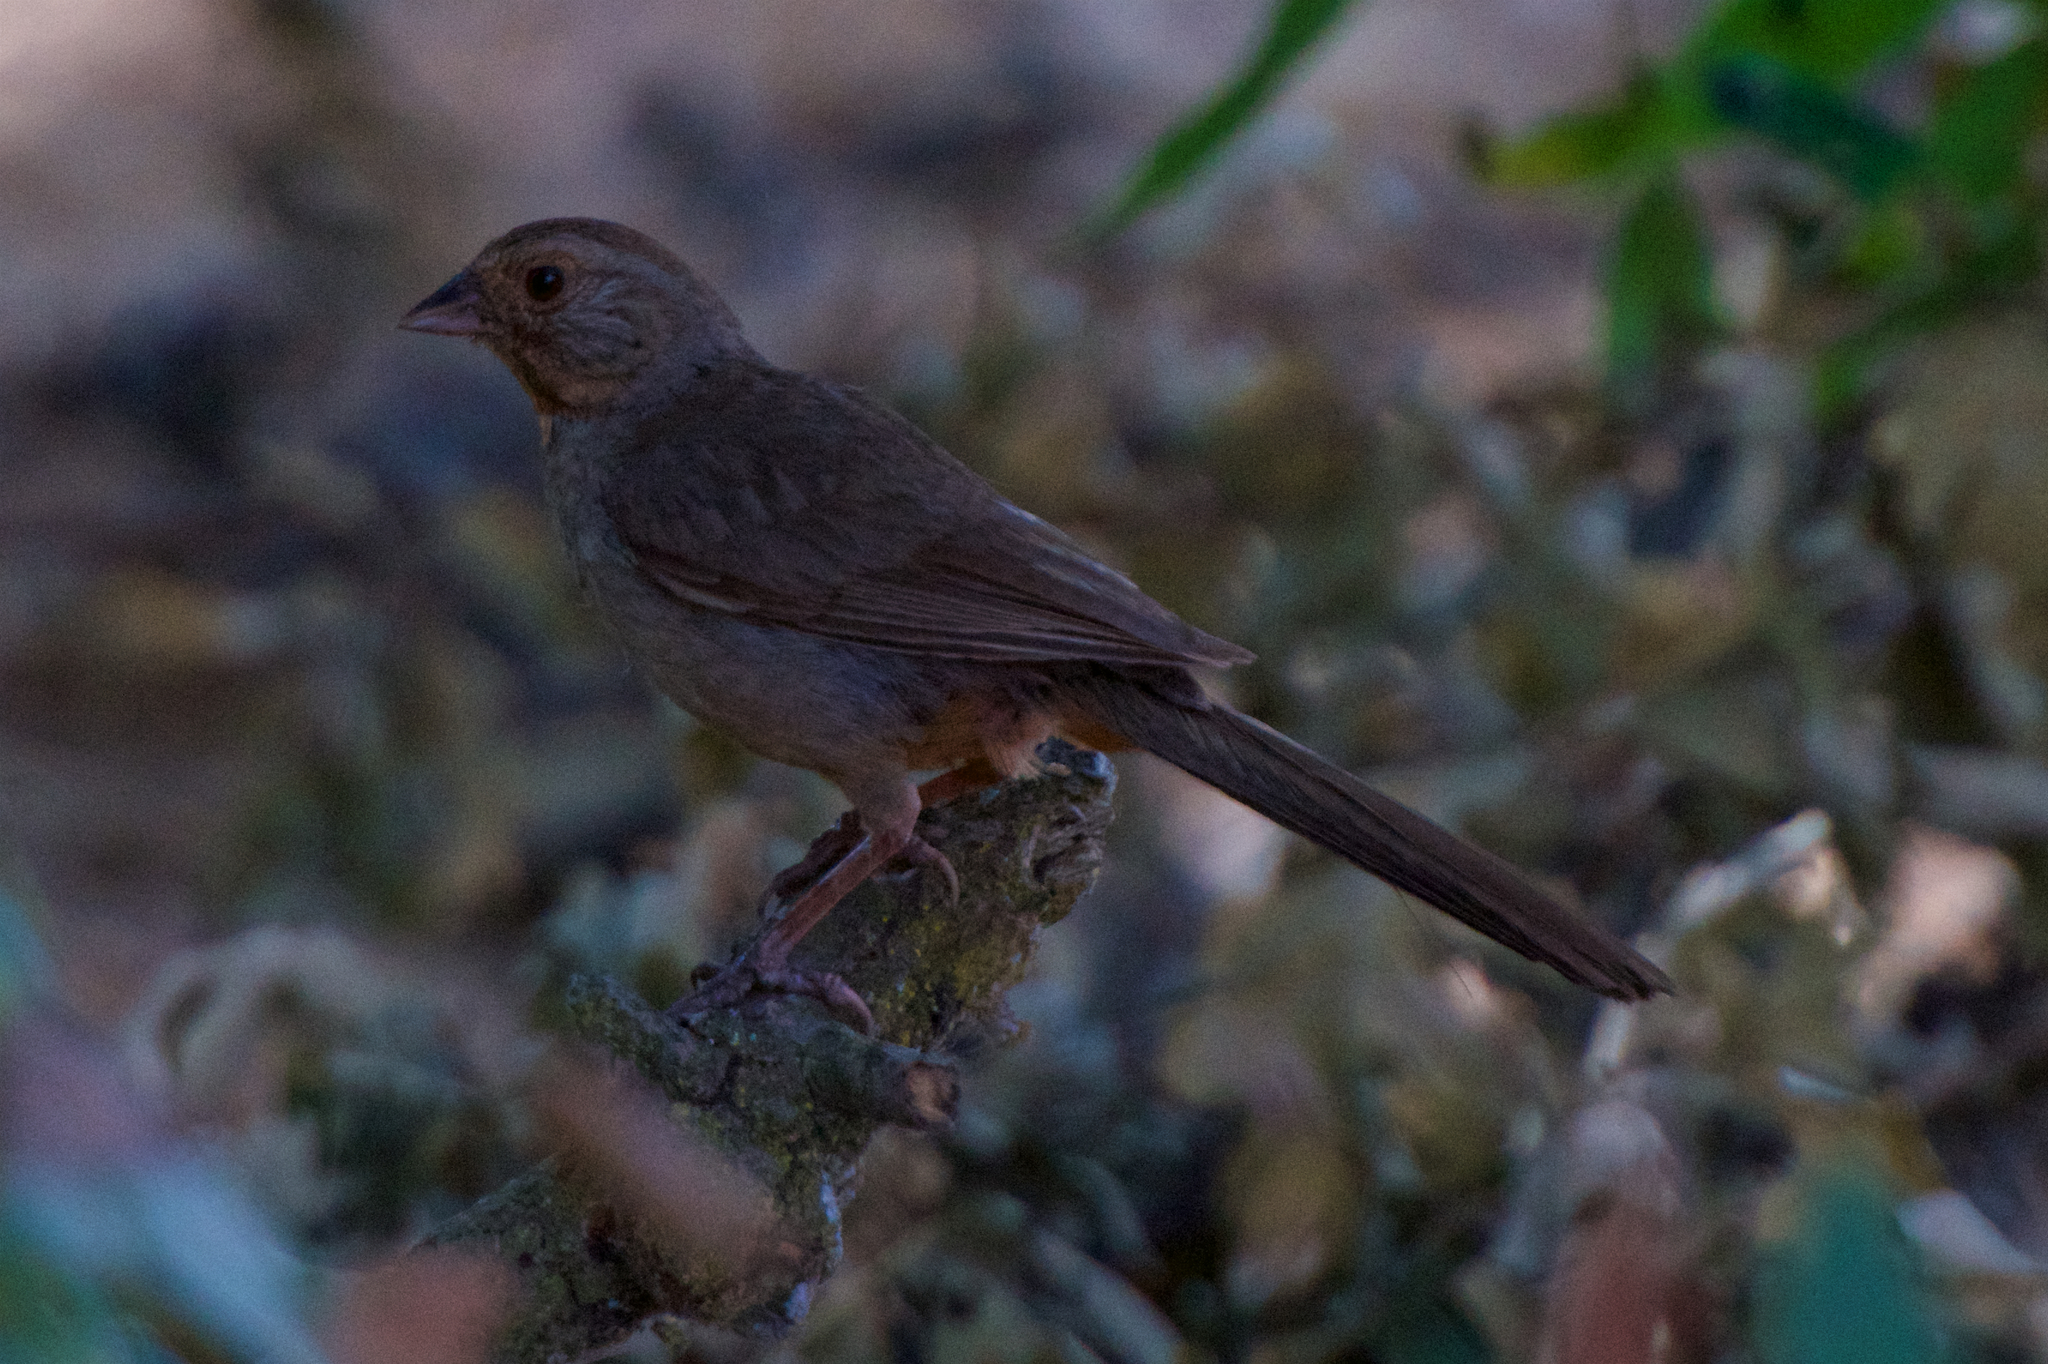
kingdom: Animalia
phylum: Chordata
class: Aves
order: Passeriformes
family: Passerellidae
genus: Melozone
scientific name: Melozone crissalis
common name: California towhee
